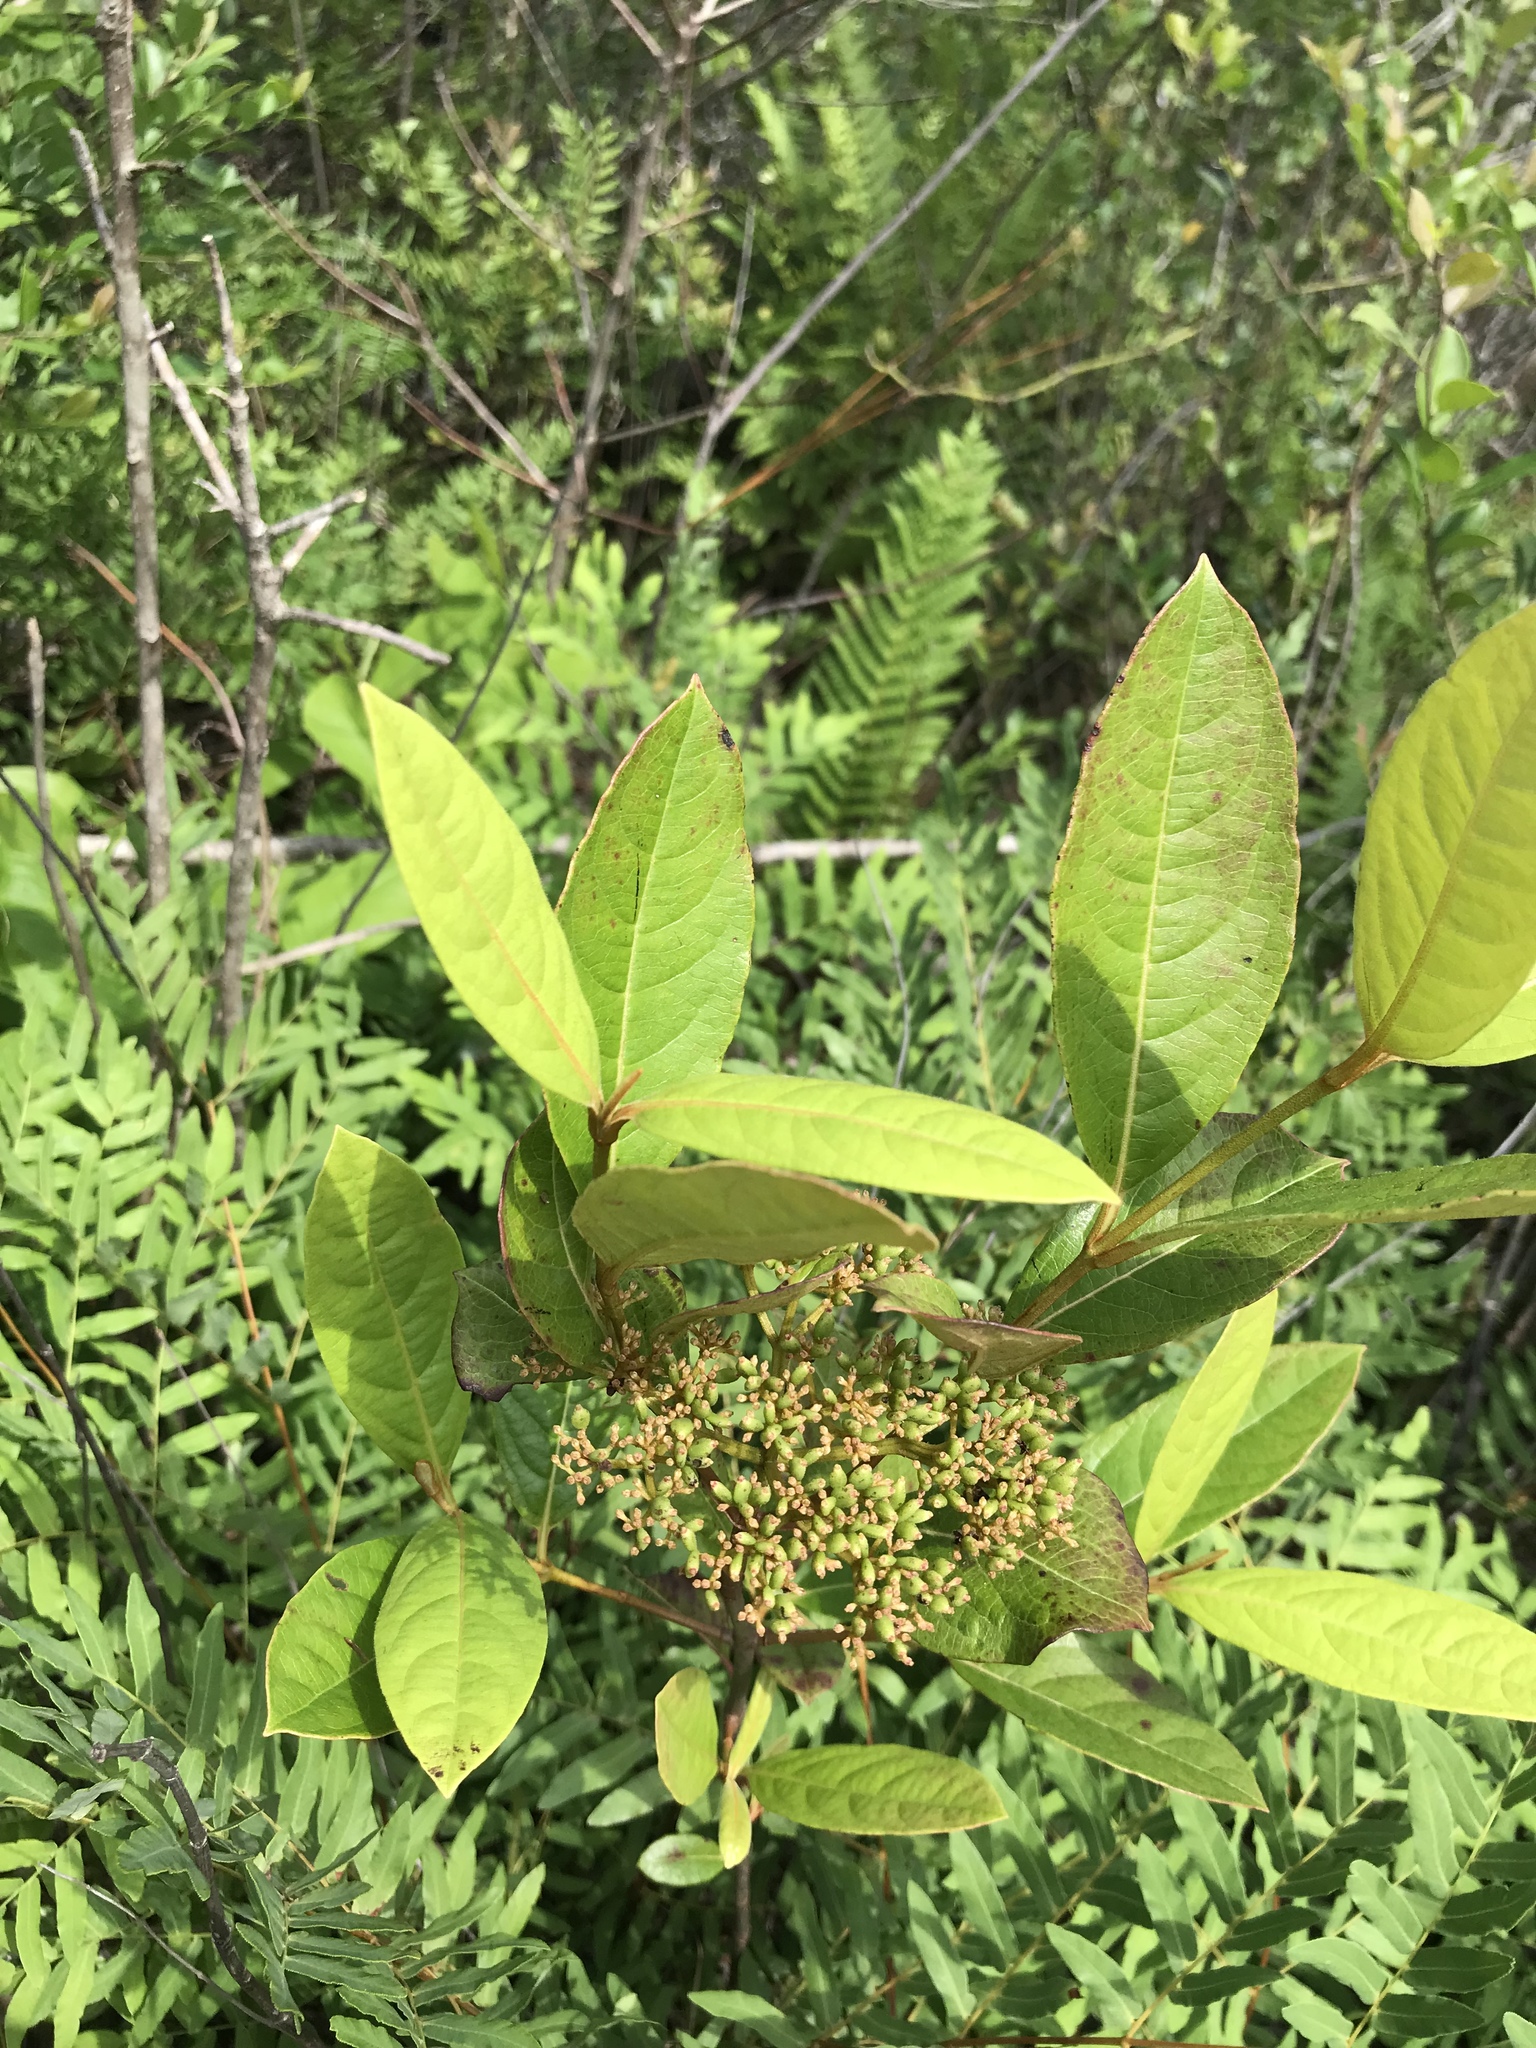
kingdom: Plantae
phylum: Tracheophyta
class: Magnoliopsida
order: Dipsacales
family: Viburnaceae
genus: Viburnum
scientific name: Viburnum nudum
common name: Possum haw
